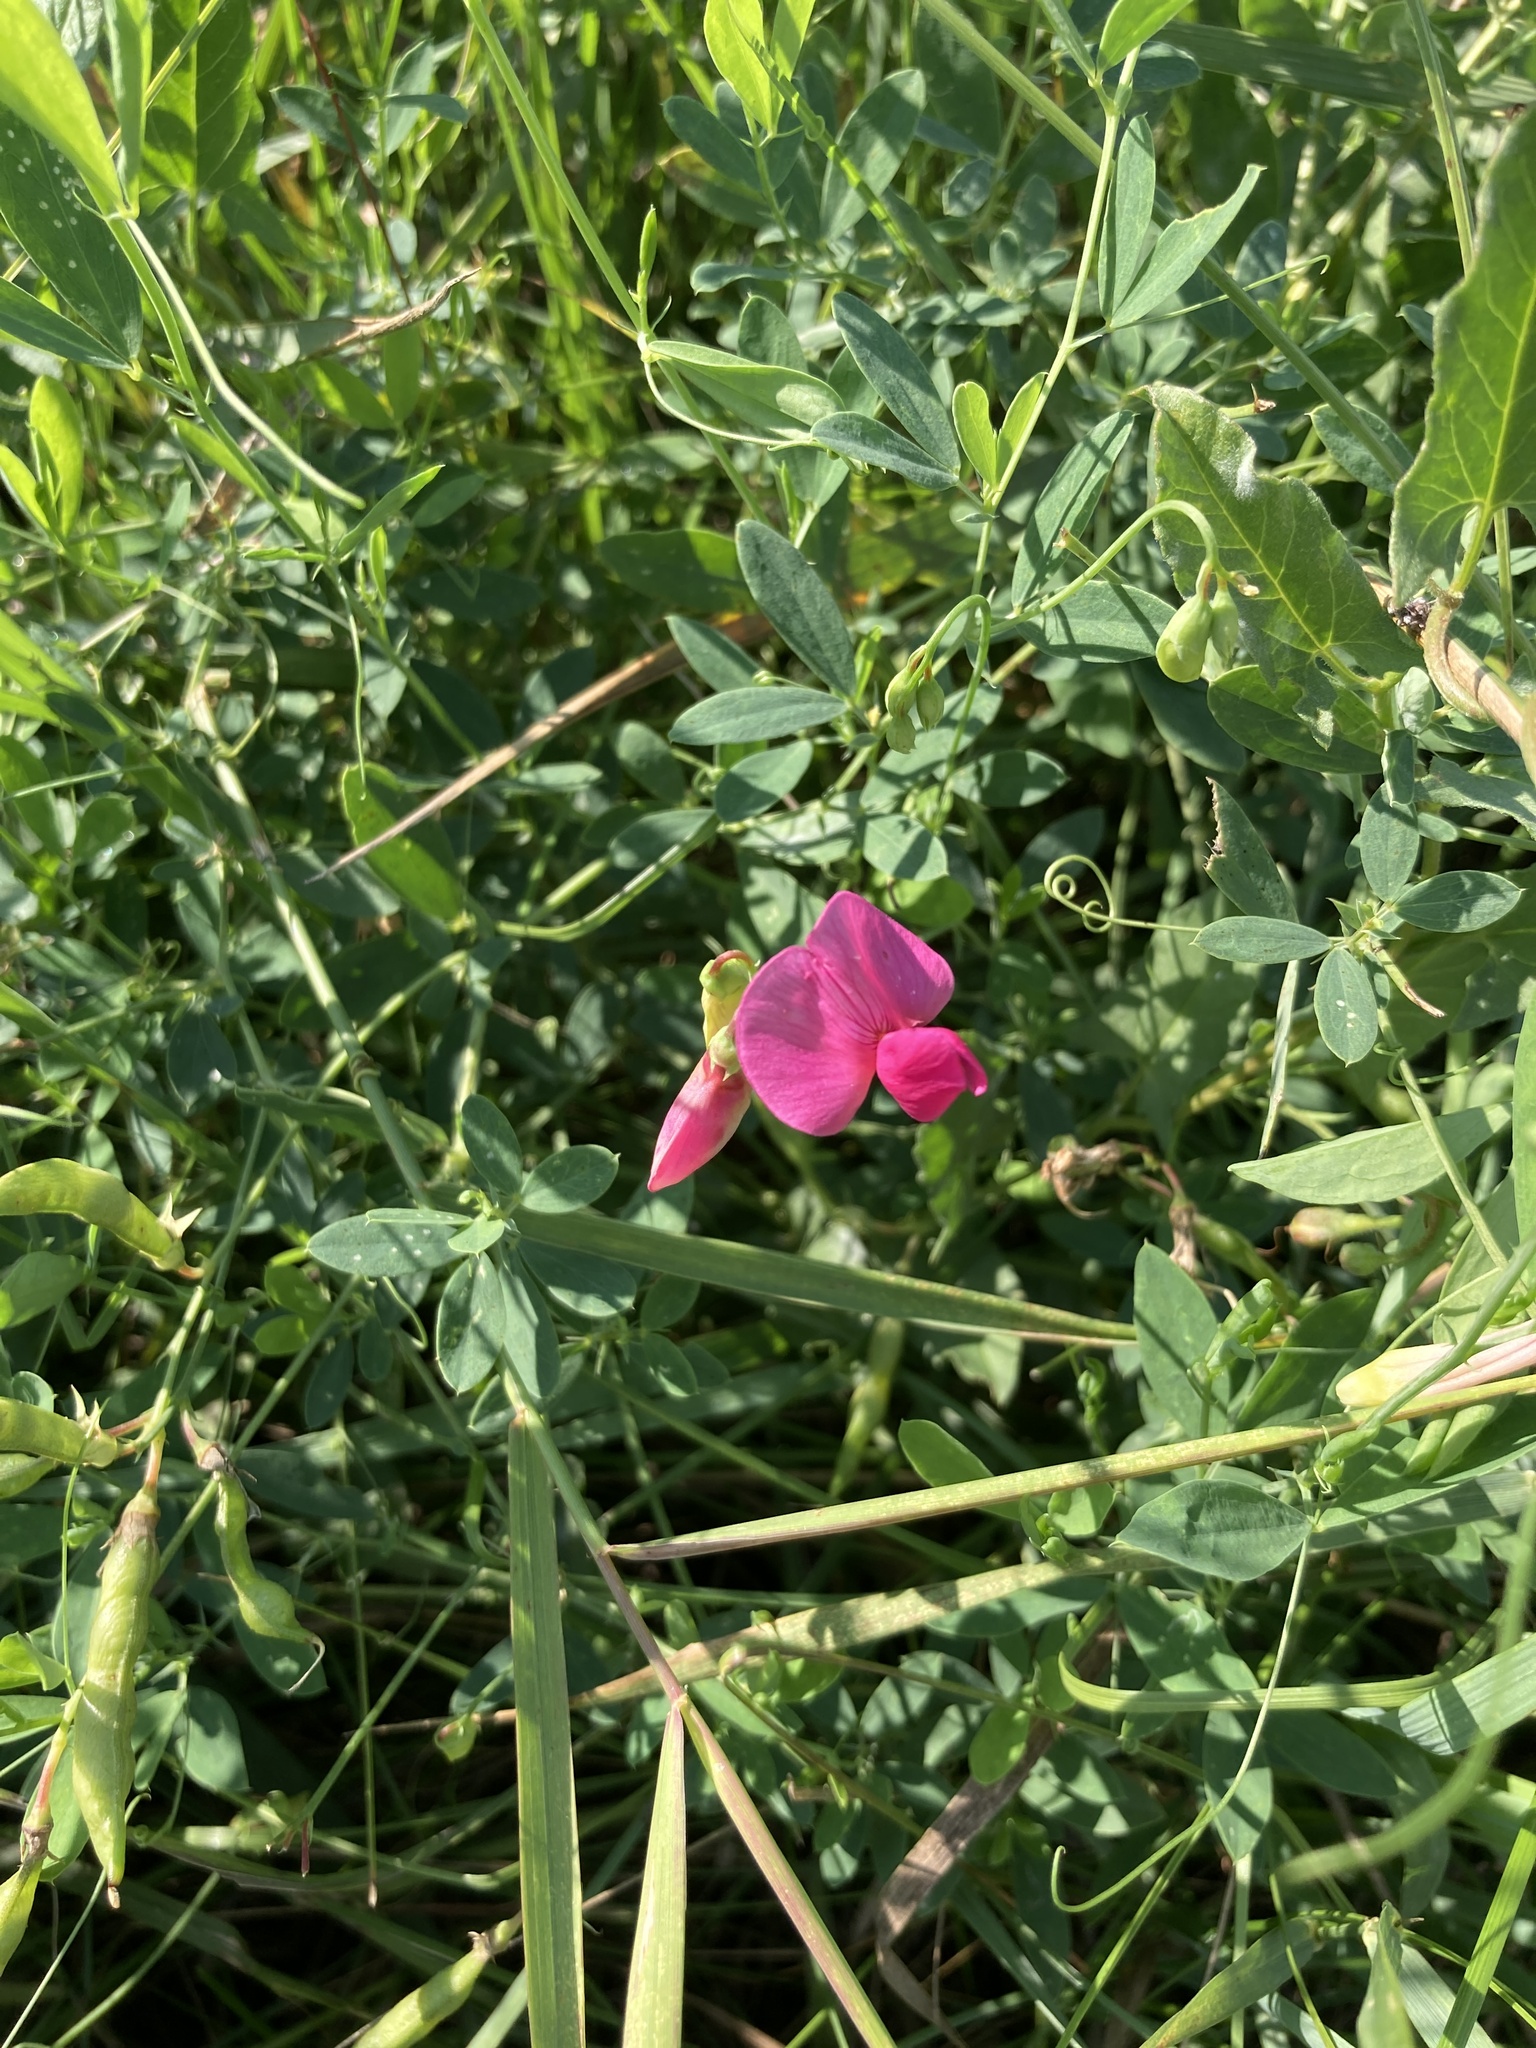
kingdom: Plantae
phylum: Tracheophyta
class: Magnoliopsida
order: Fabales
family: Fabaceae
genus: Lathyrus
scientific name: Lathyrus tuberosus
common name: Tuberous pea
